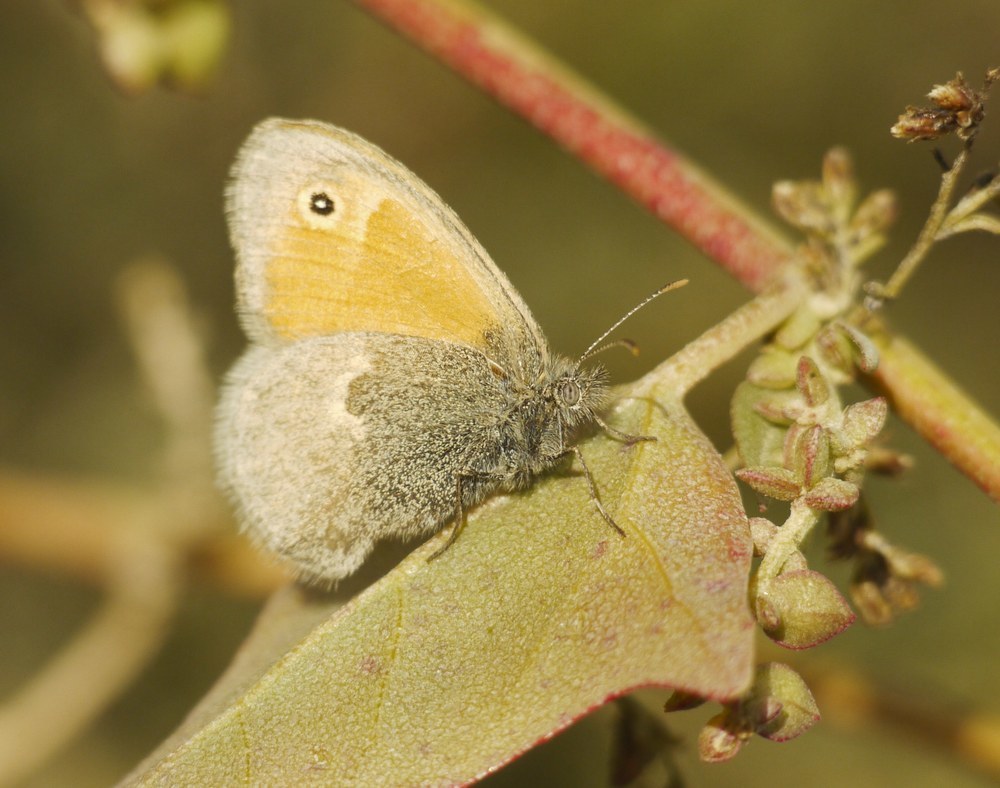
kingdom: Animalia
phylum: Arthropoda
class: Insecta
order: Lepidoptera
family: Nymphalidae
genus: Coenonympha
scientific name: Coenonympha pamphilus
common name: Small heath
